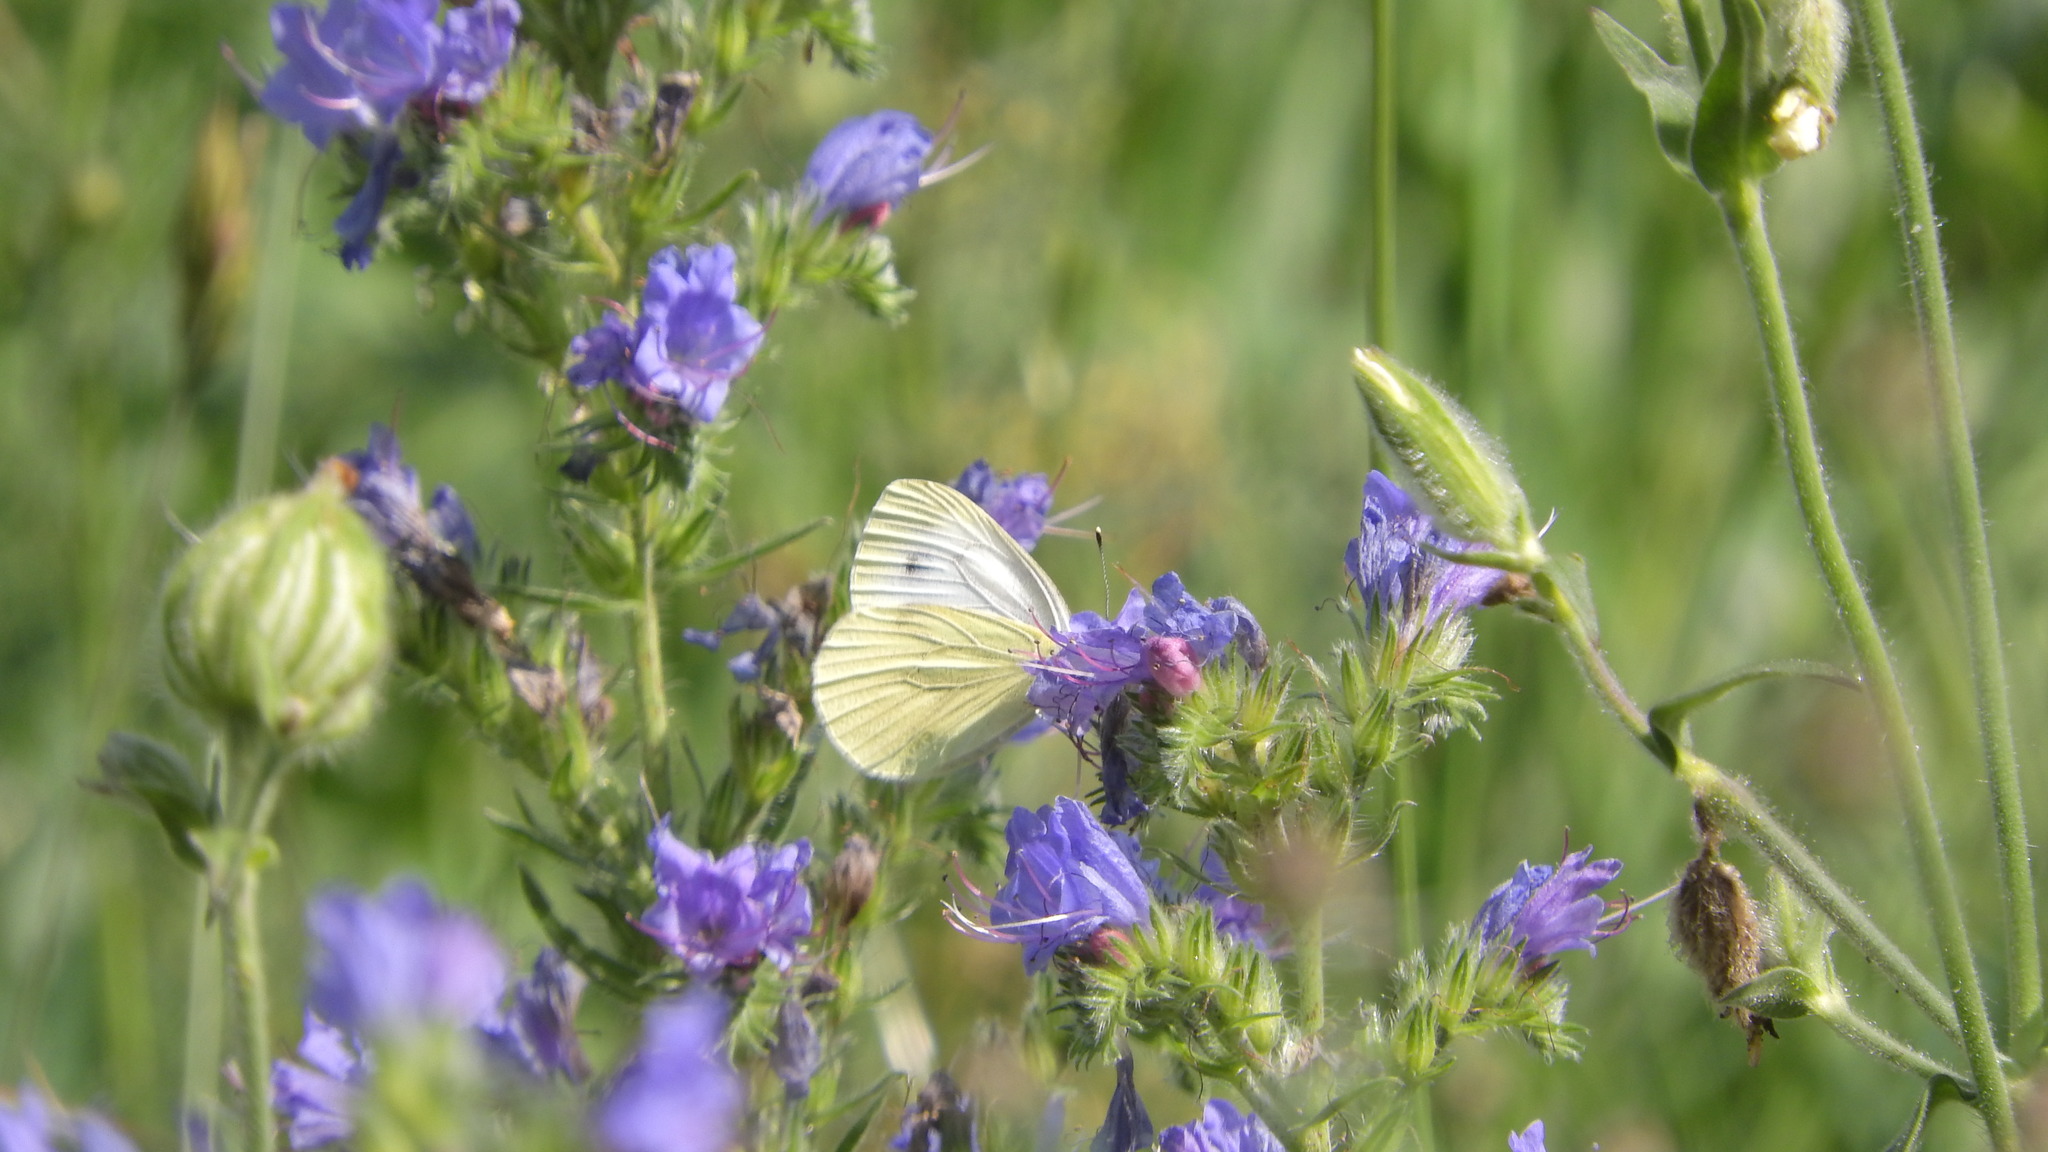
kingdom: Animalia
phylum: Arthropoda
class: Insecta
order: Lepidoptera
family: Pieridae
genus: Pieris
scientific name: Pieris napi
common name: Green-veined white
